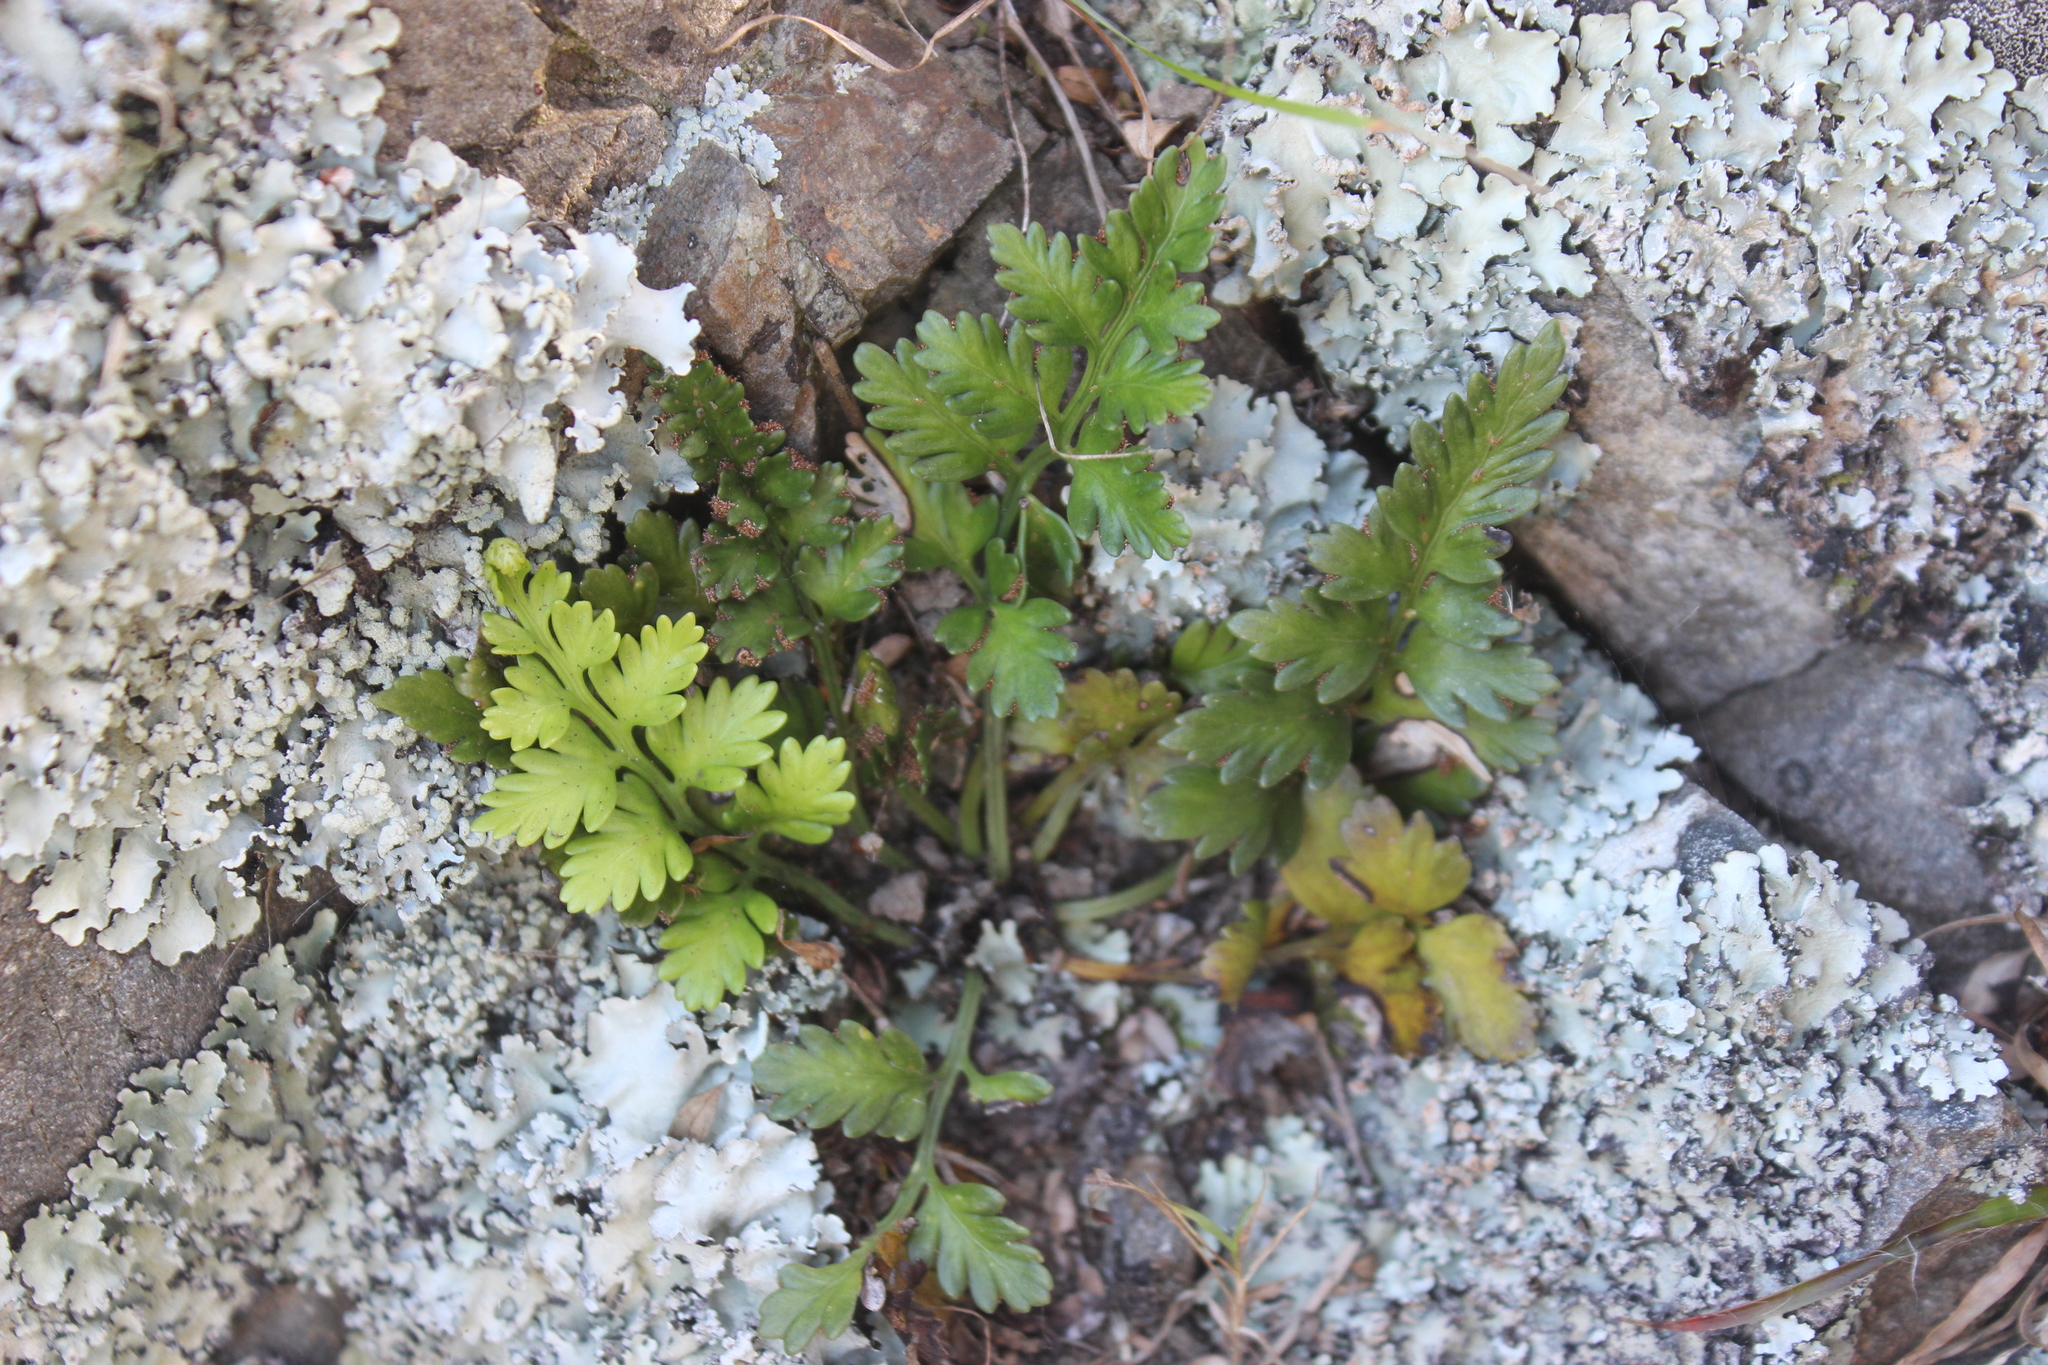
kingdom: Plantae
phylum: Tracheophyta
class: Polypodiopsida
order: Polypodiales
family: Aspleniaceae
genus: Asplenium
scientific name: Asplenium appendiculatum
